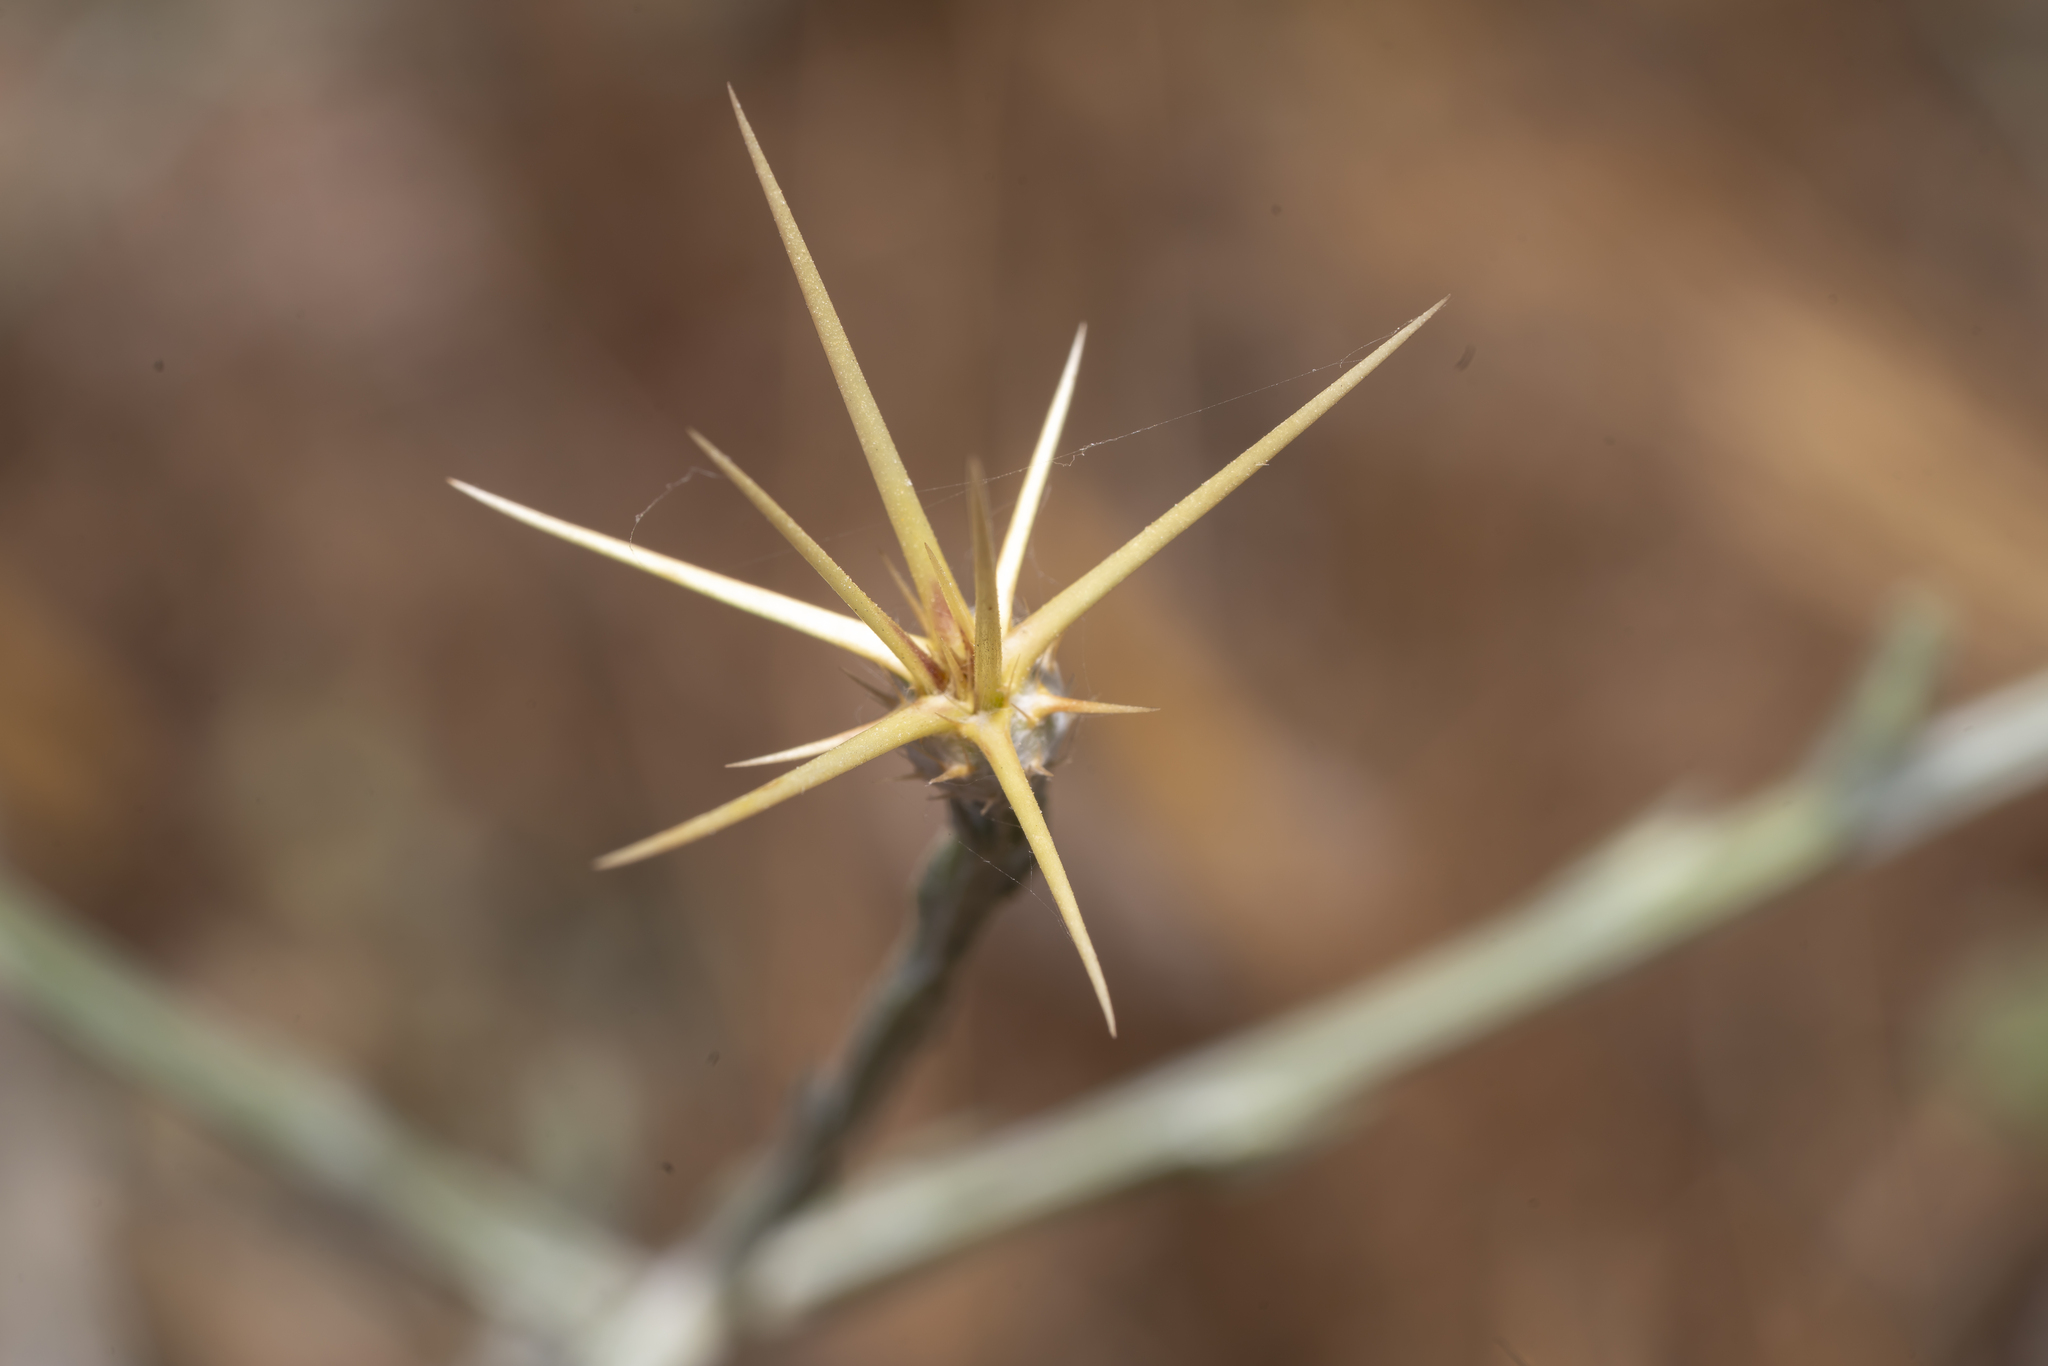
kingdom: Plantae
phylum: Tracheophyta
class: Magnoliopsida
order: Asterales
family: Asteraceae
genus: Centaurea
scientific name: Centaurea solstitialis
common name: Yellow star-thistle
